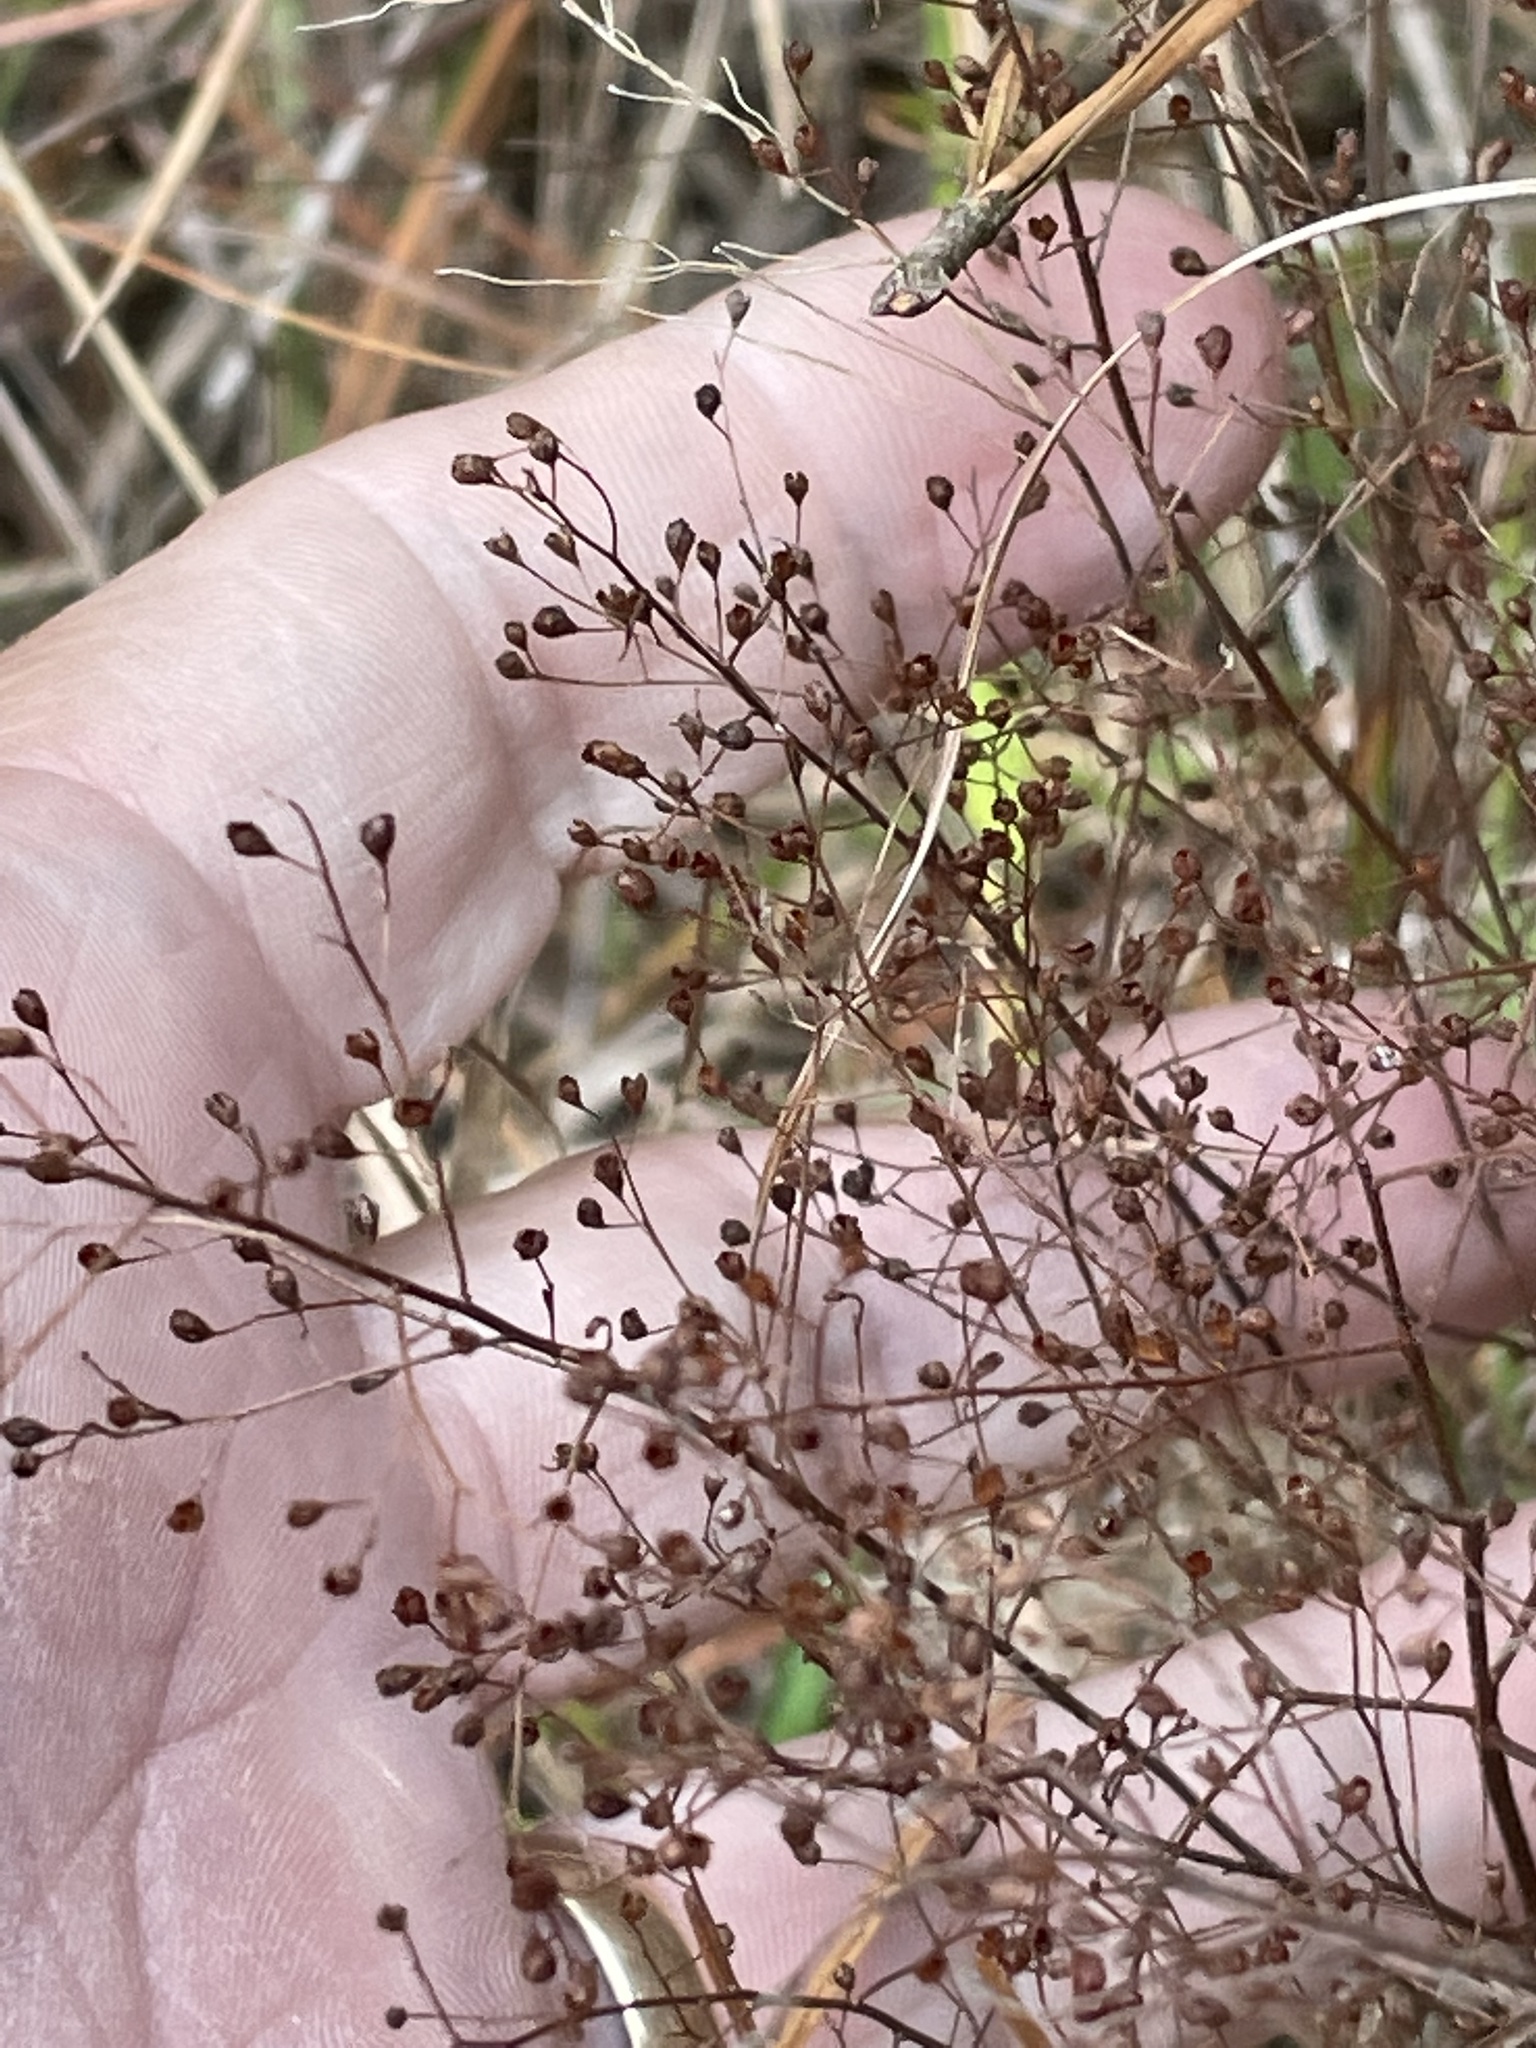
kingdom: Plantae
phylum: Tracheophyta
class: Magnoliopsida
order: Malvales
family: Cistaceae
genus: Lechea
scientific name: Lechea racemulosa
